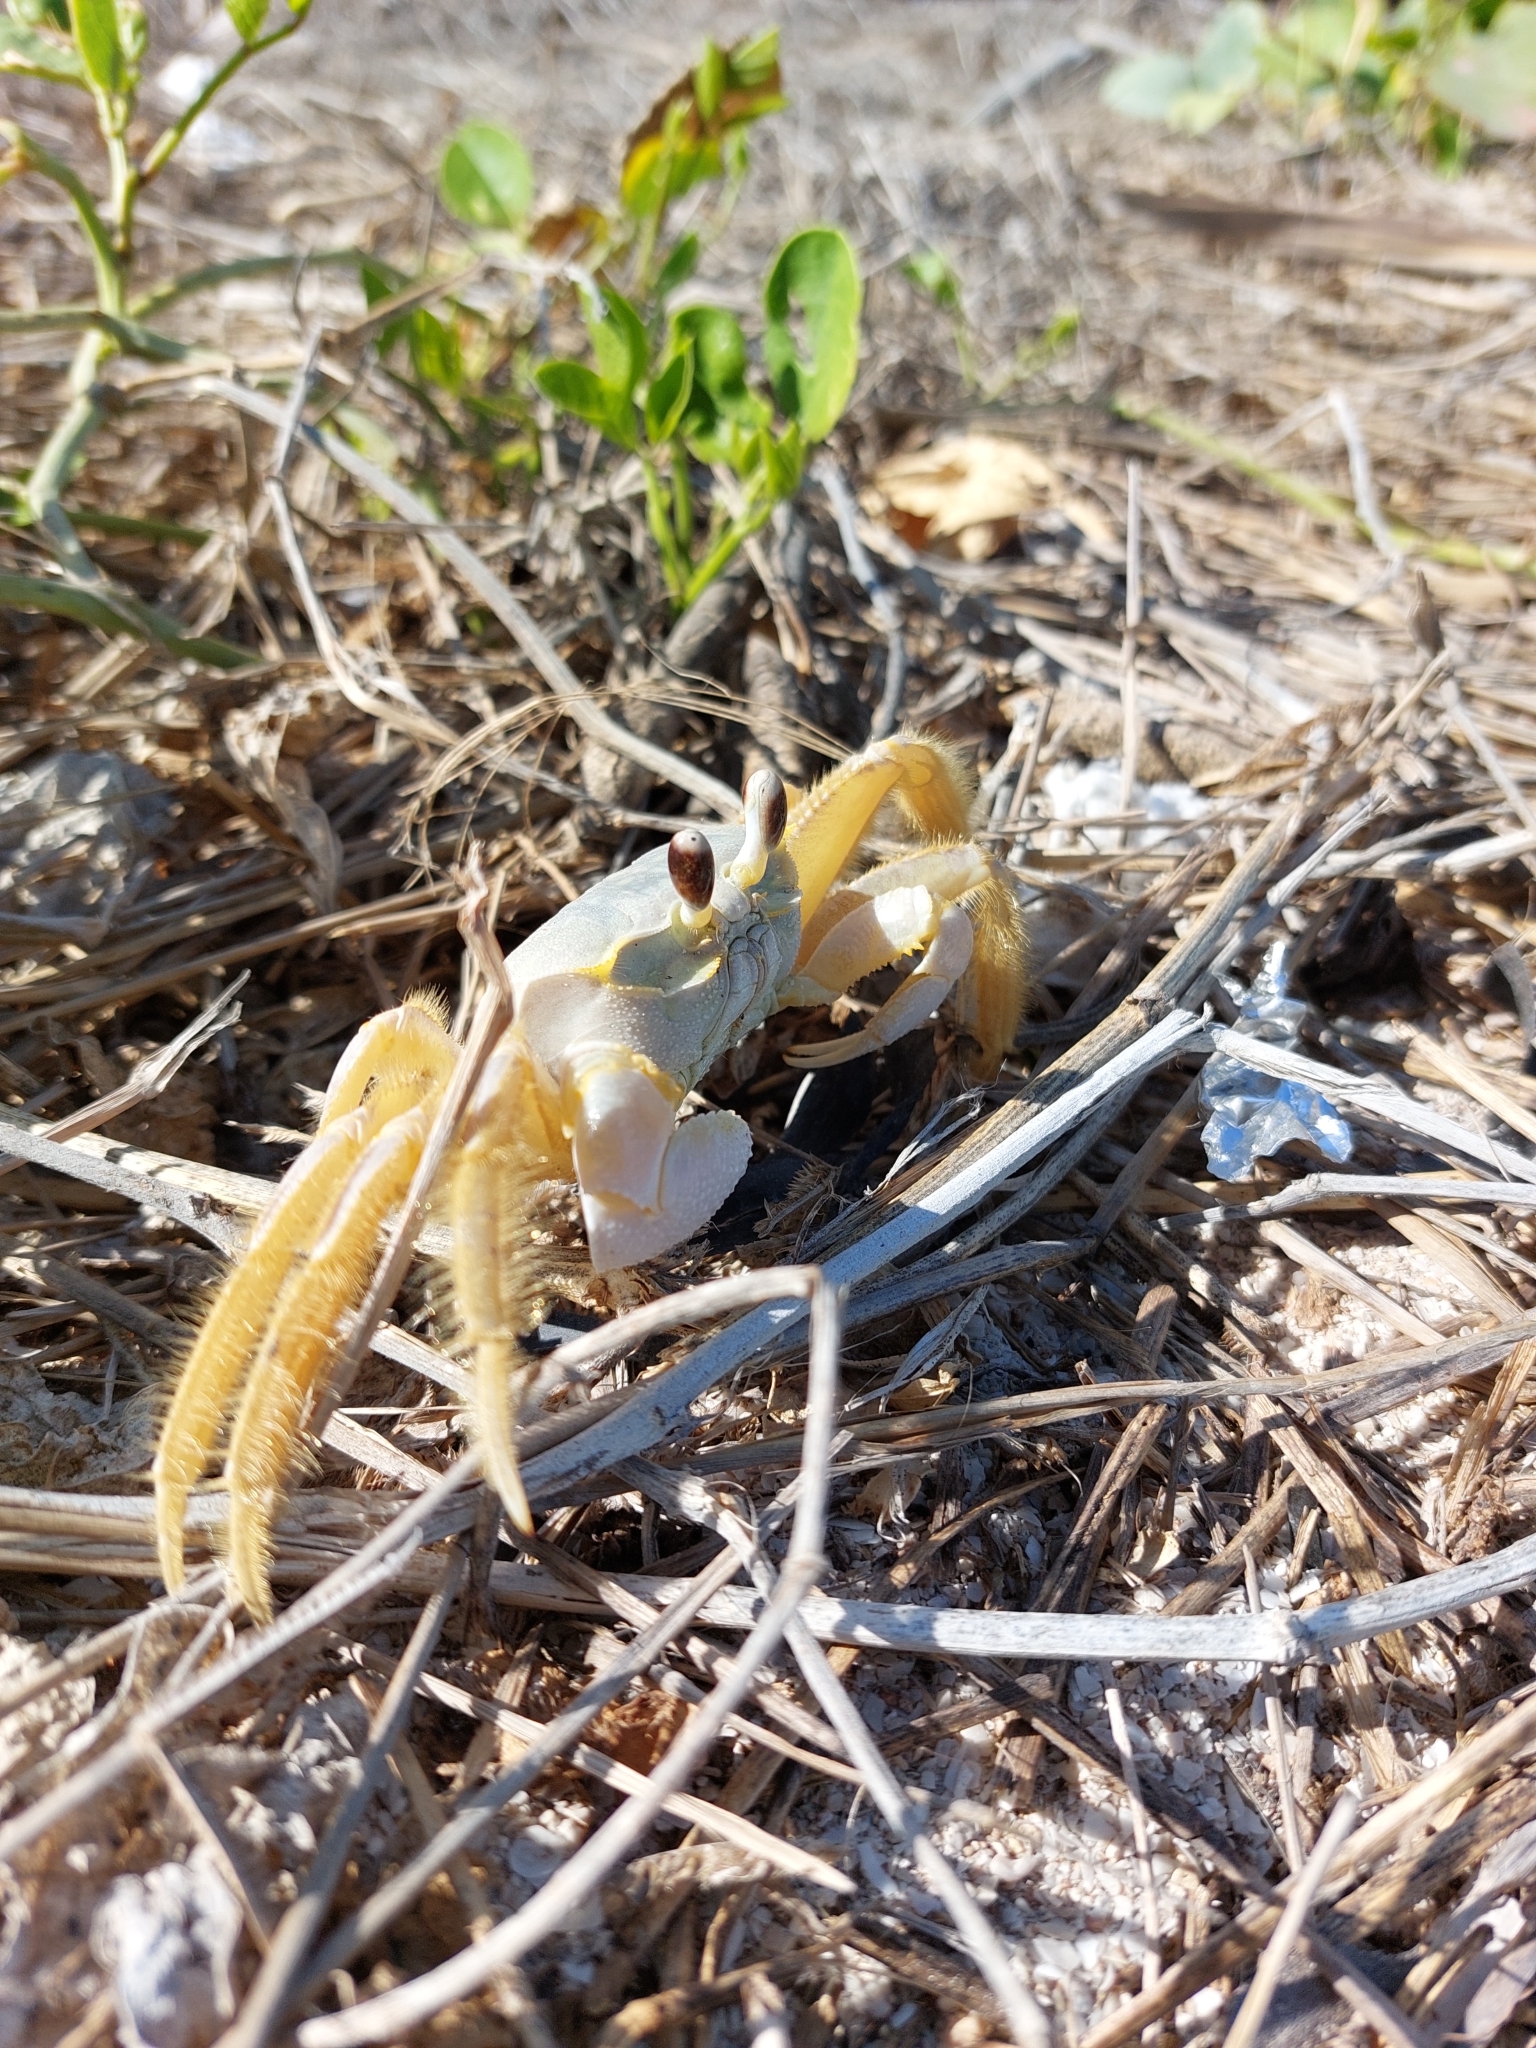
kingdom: Animalia
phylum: Arthropoda
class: Malacostraca
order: Decapoda
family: Ocypodidae
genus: Ocypode
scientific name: Ocypode quadrata
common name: Ghost crab
